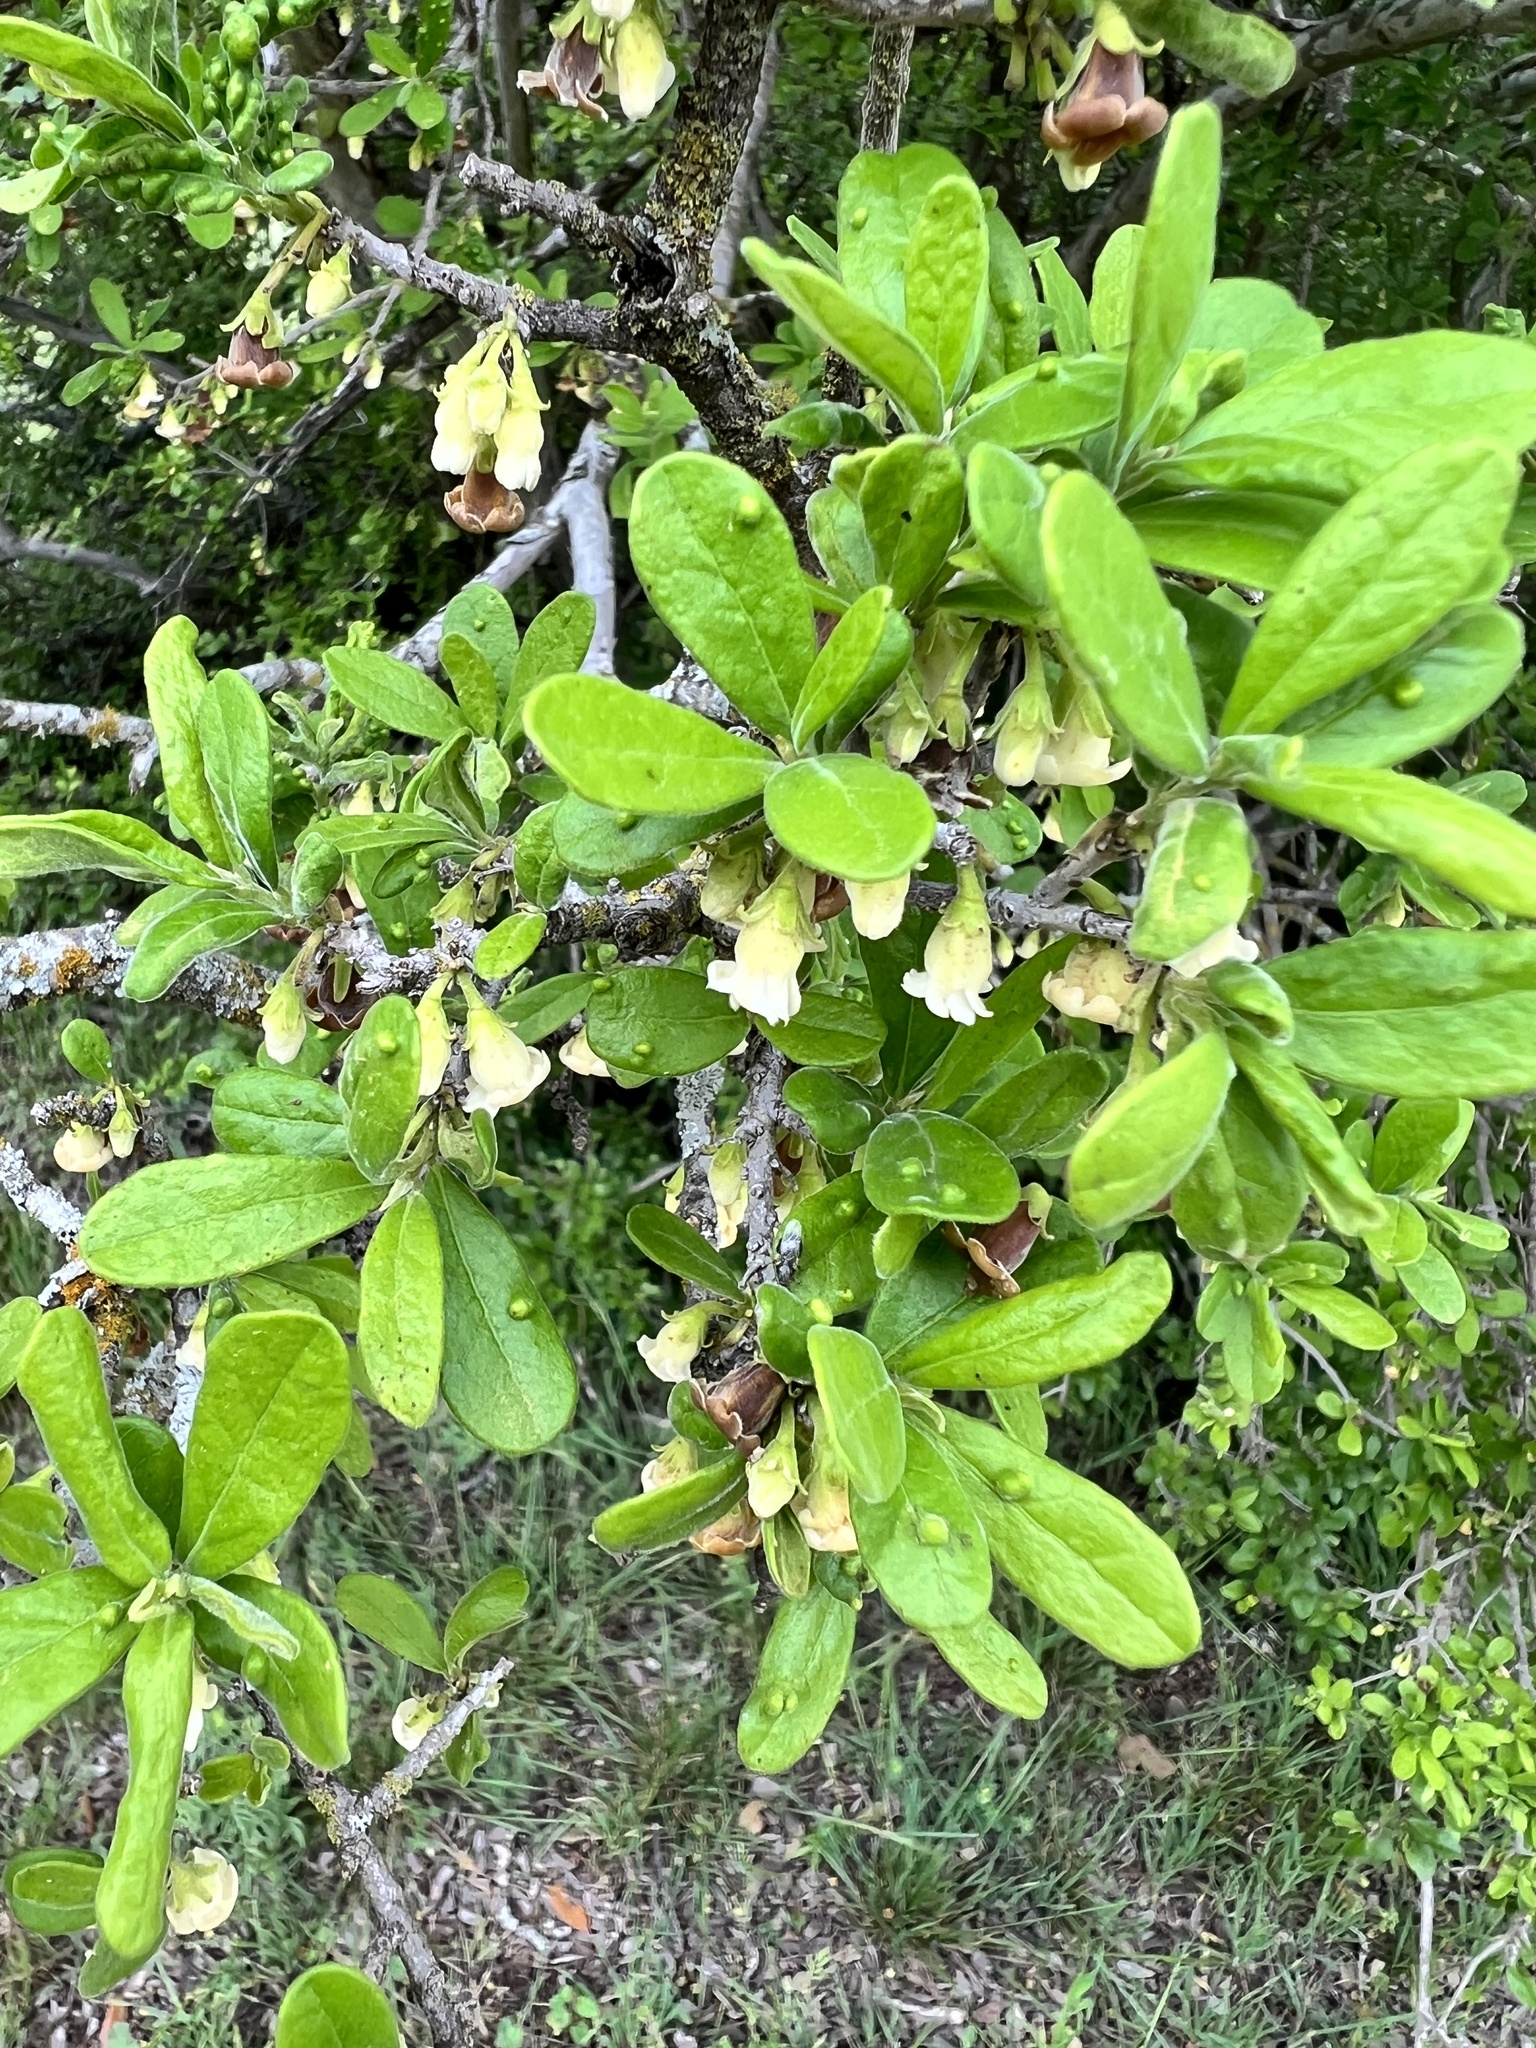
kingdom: Animalia
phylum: Arthropoda
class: Arachnida
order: Trombidiformes
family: Eriophyidae
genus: Aceria
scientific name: Aceria
